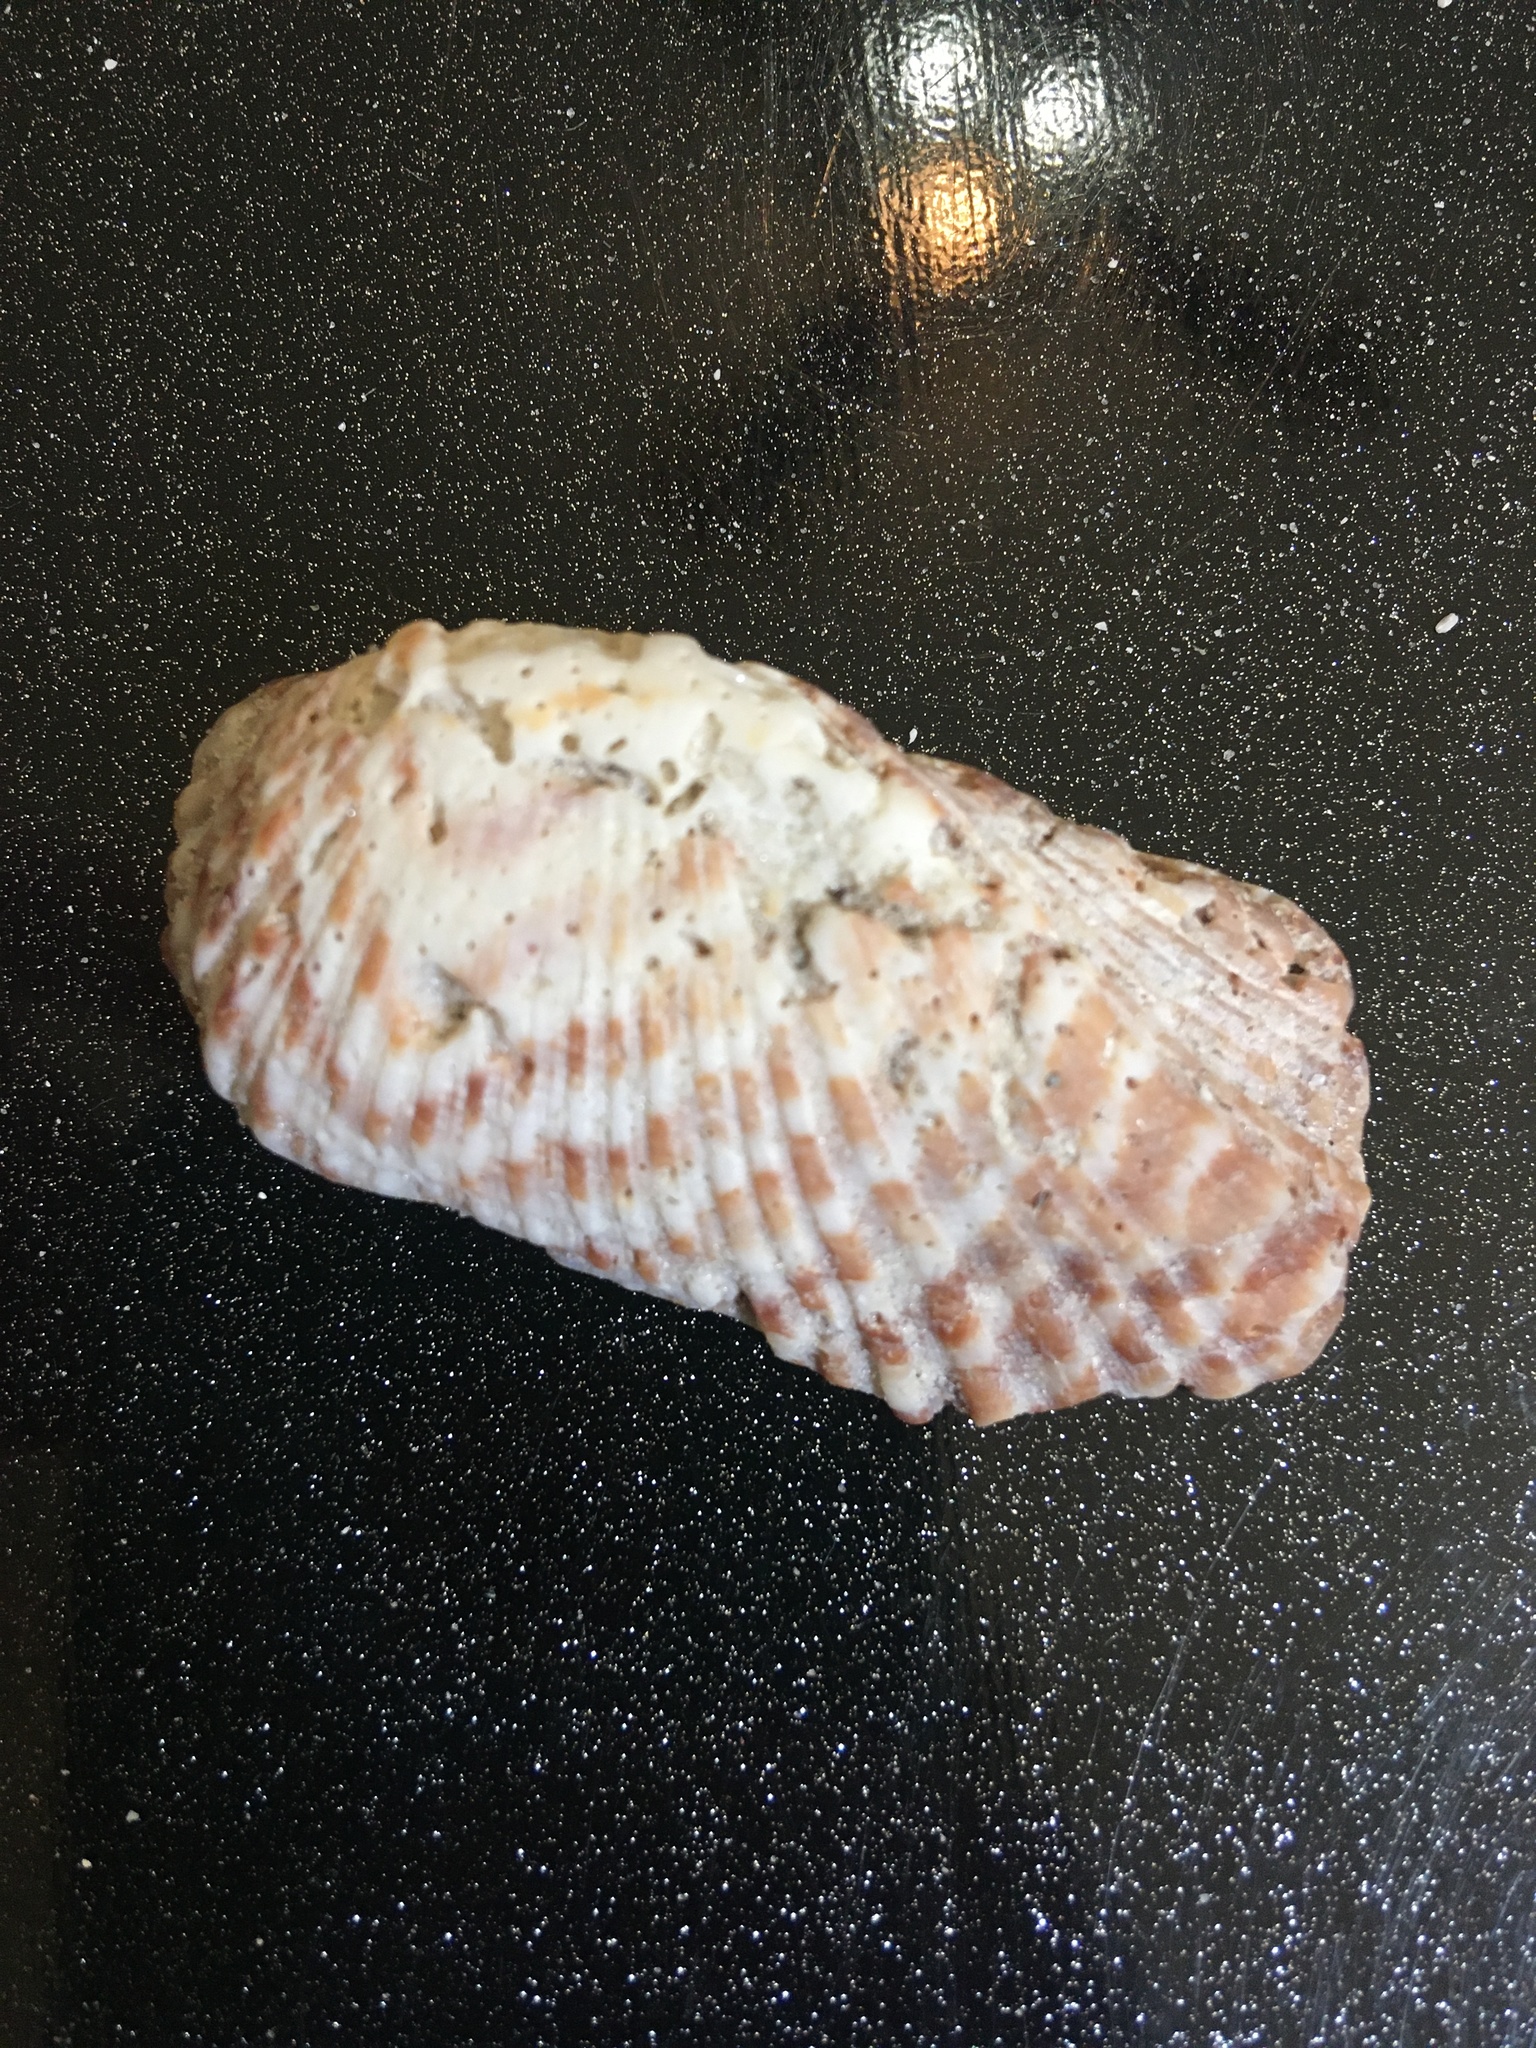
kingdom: Animalia
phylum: Mollusca
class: Bivalvia
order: Arcida
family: Arcidae
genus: Arca
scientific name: Arca zebra
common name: Atlantic turkey wing
